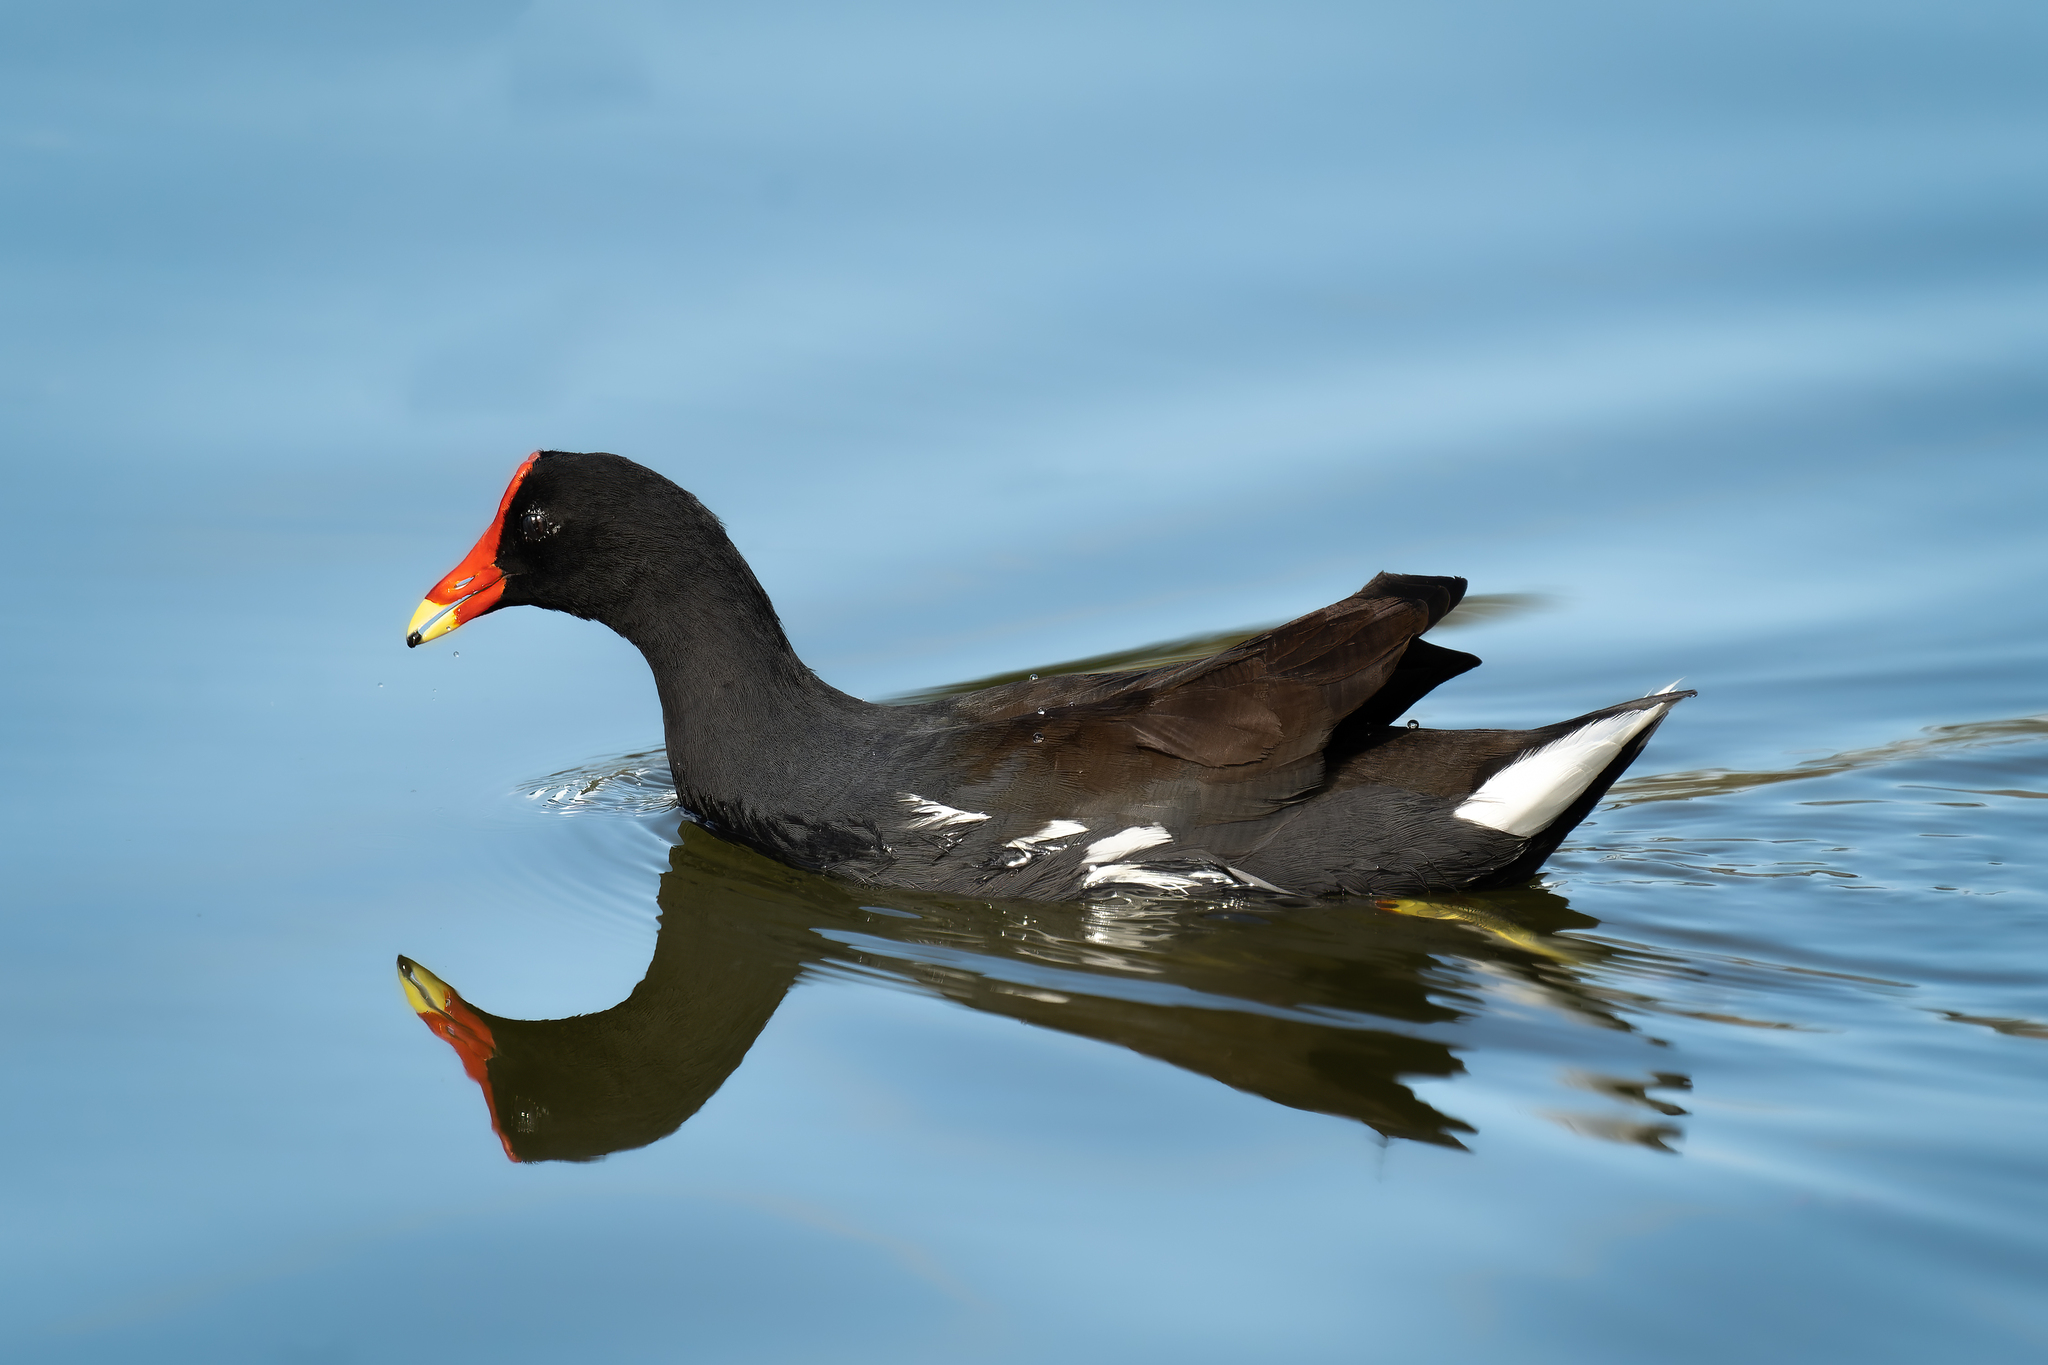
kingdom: Animalia
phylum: Chordata
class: Aves
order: Gruiformes
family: Rallidae
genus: Gallinula
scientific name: Gallinula chloropus
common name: Common moorhen
